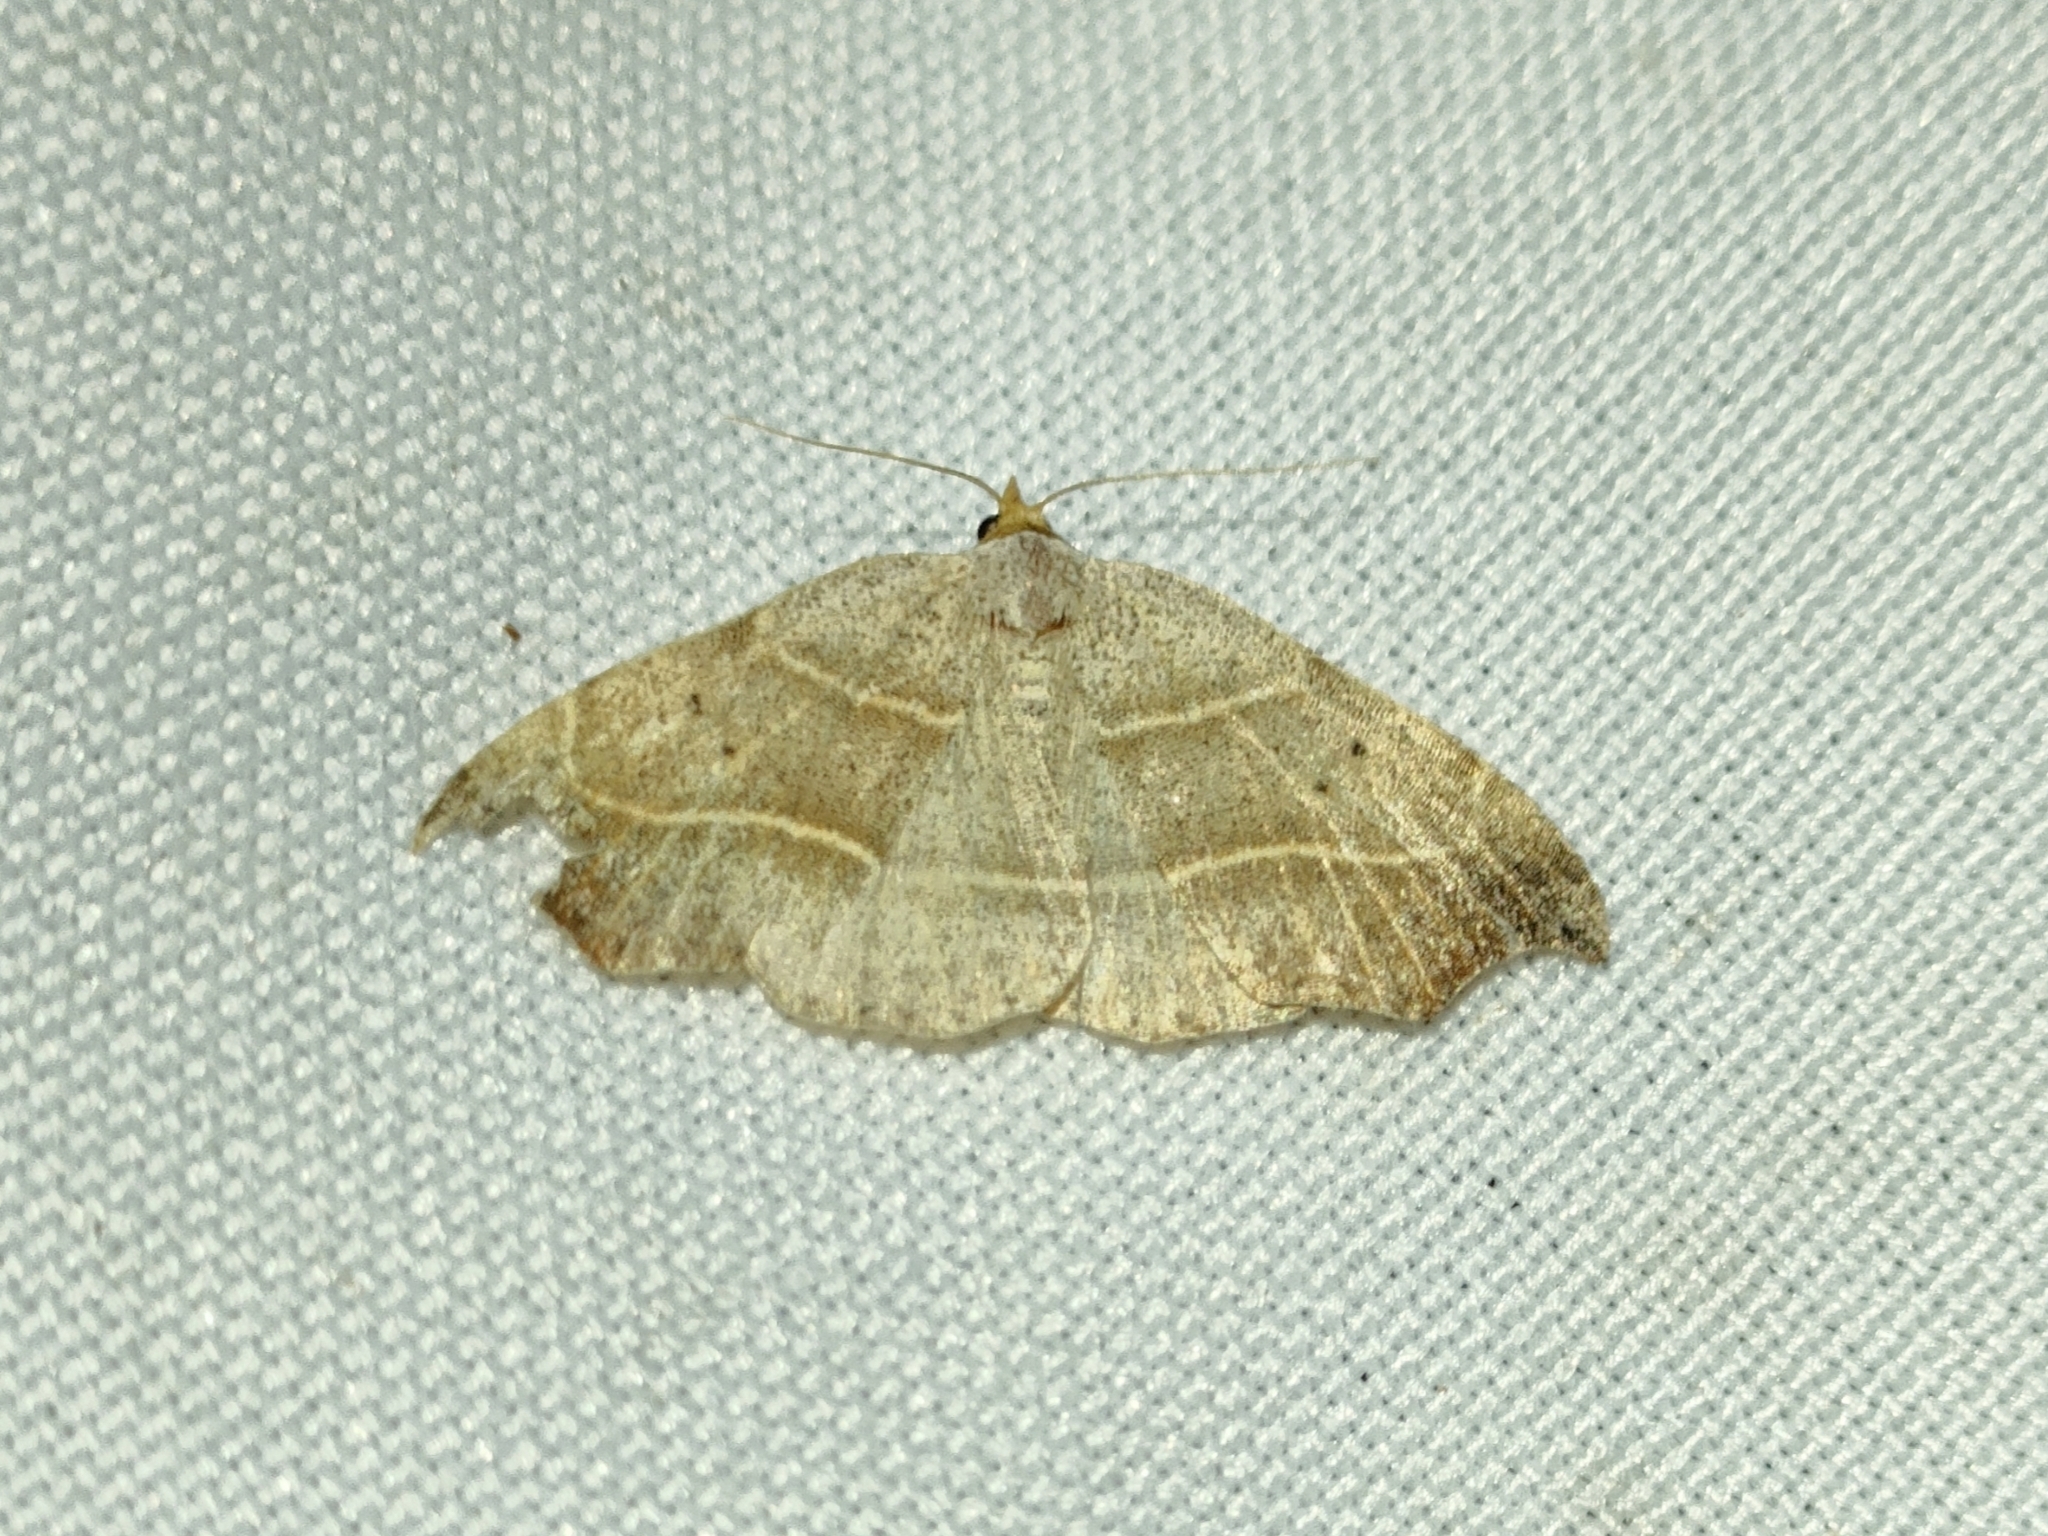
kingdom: Animalia
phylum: Arthropoda
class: Insecta
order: Lepidoptera
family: Erebidae
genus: Laspeyria
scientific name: Laspeyria flexula
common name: Beautiful hook-tip
